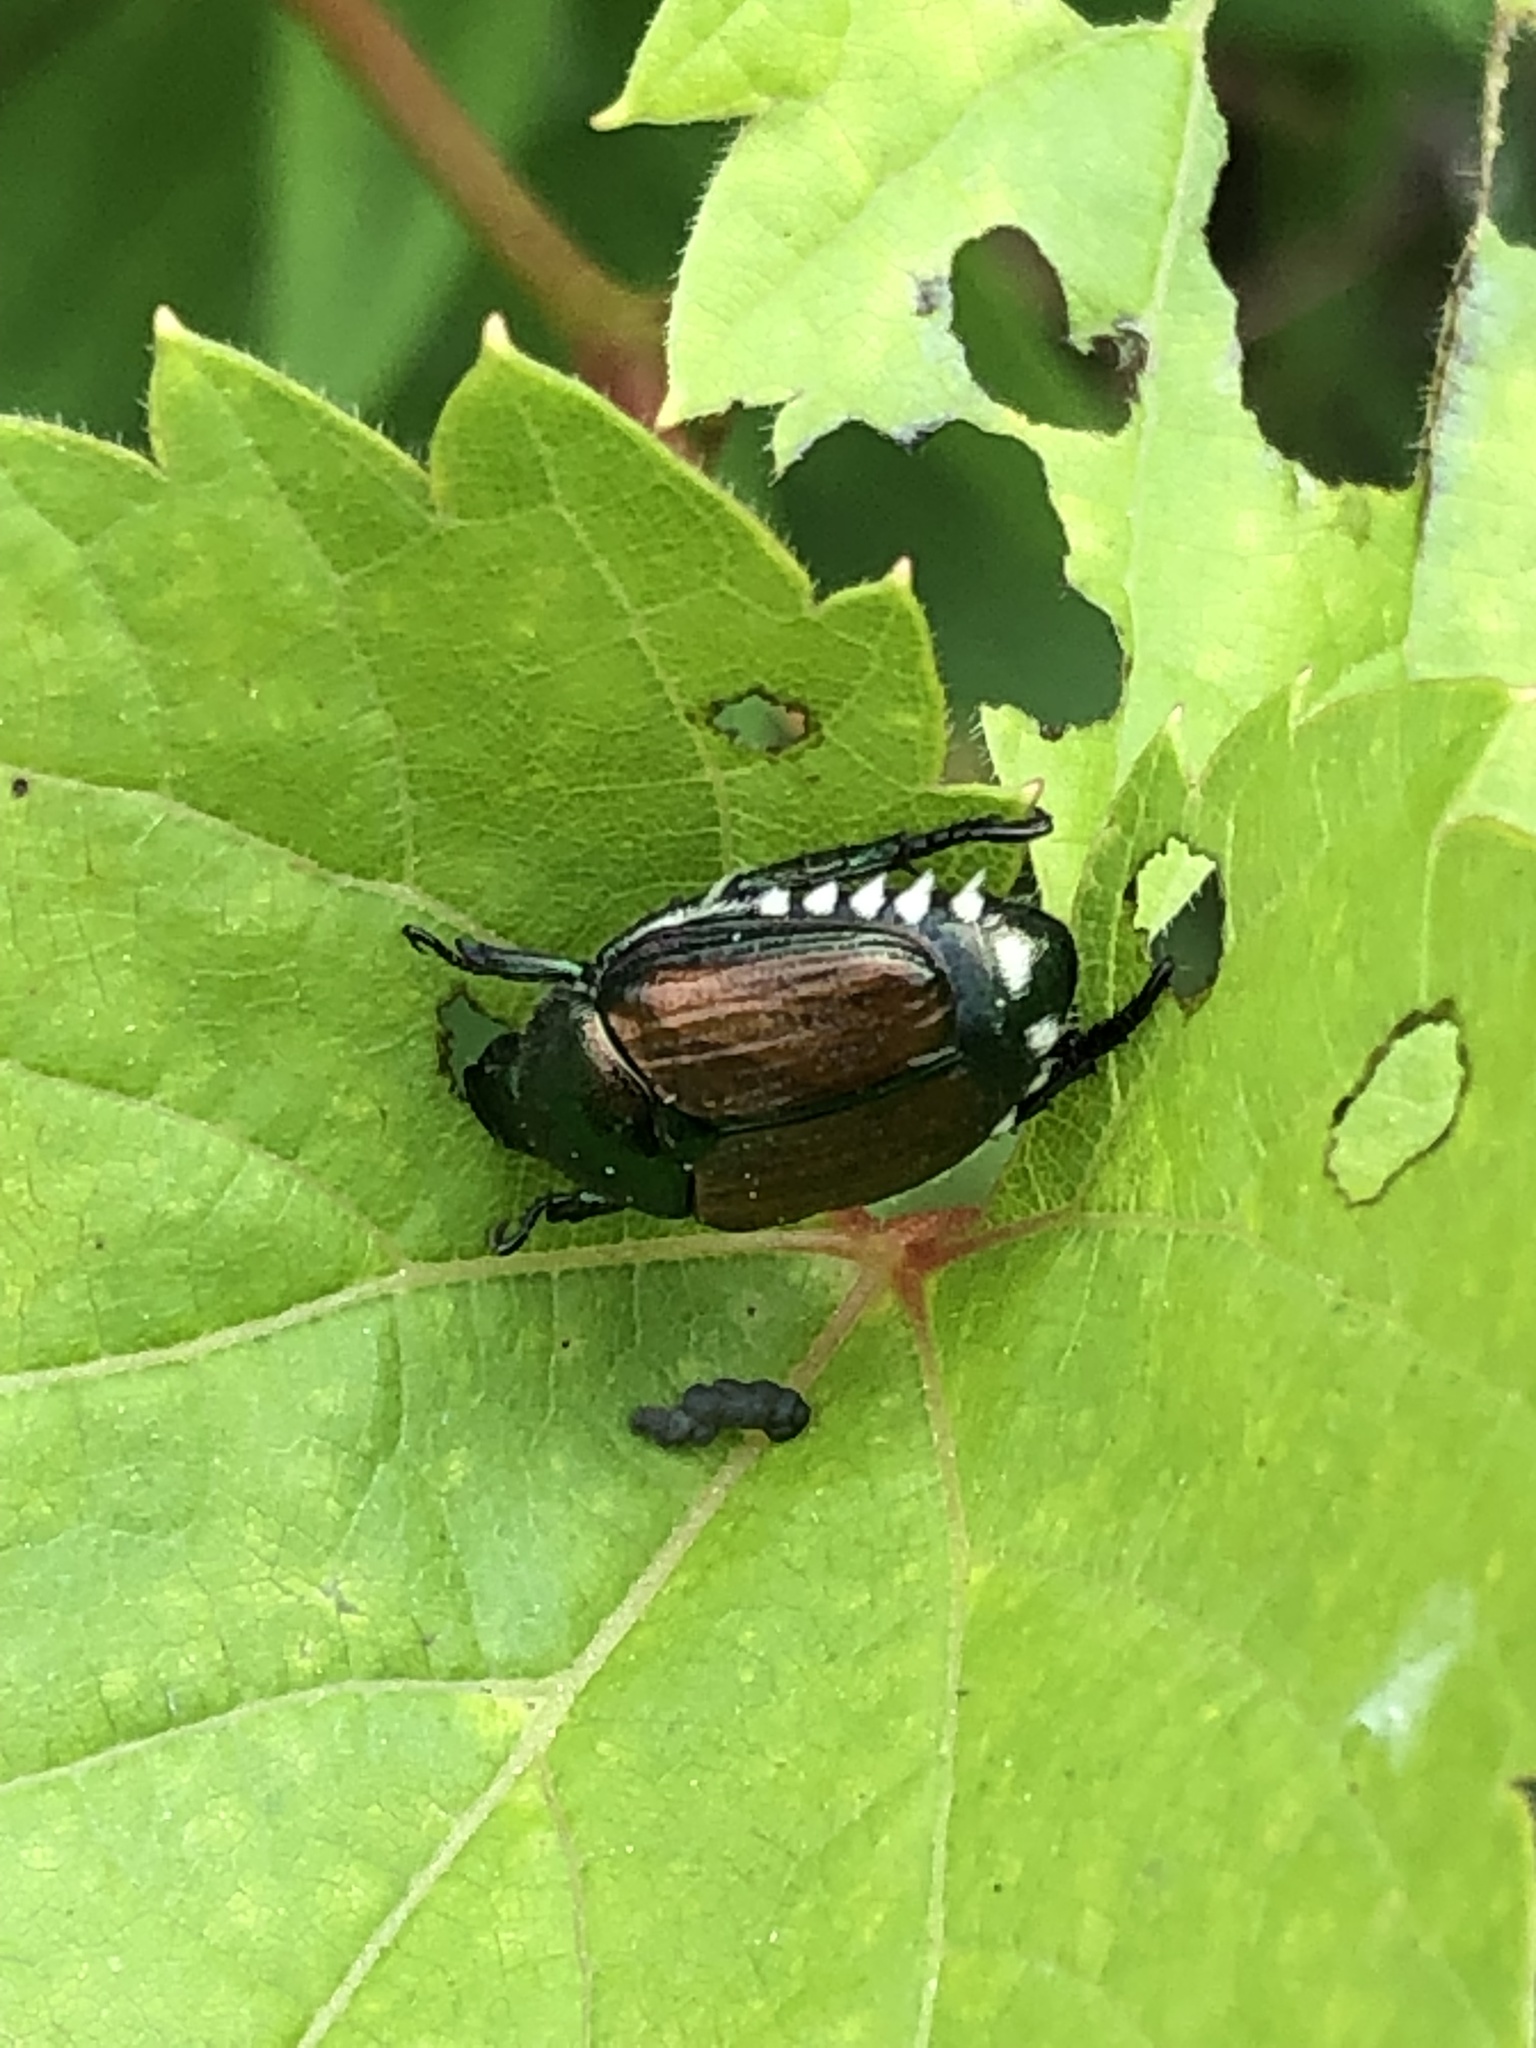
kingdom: Animalia
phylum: Arthropoda
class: Insecta
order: Coleoptera
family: Scarabaeidae
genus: Popillia
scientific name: Popillia japonica
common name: Japanese beetle
